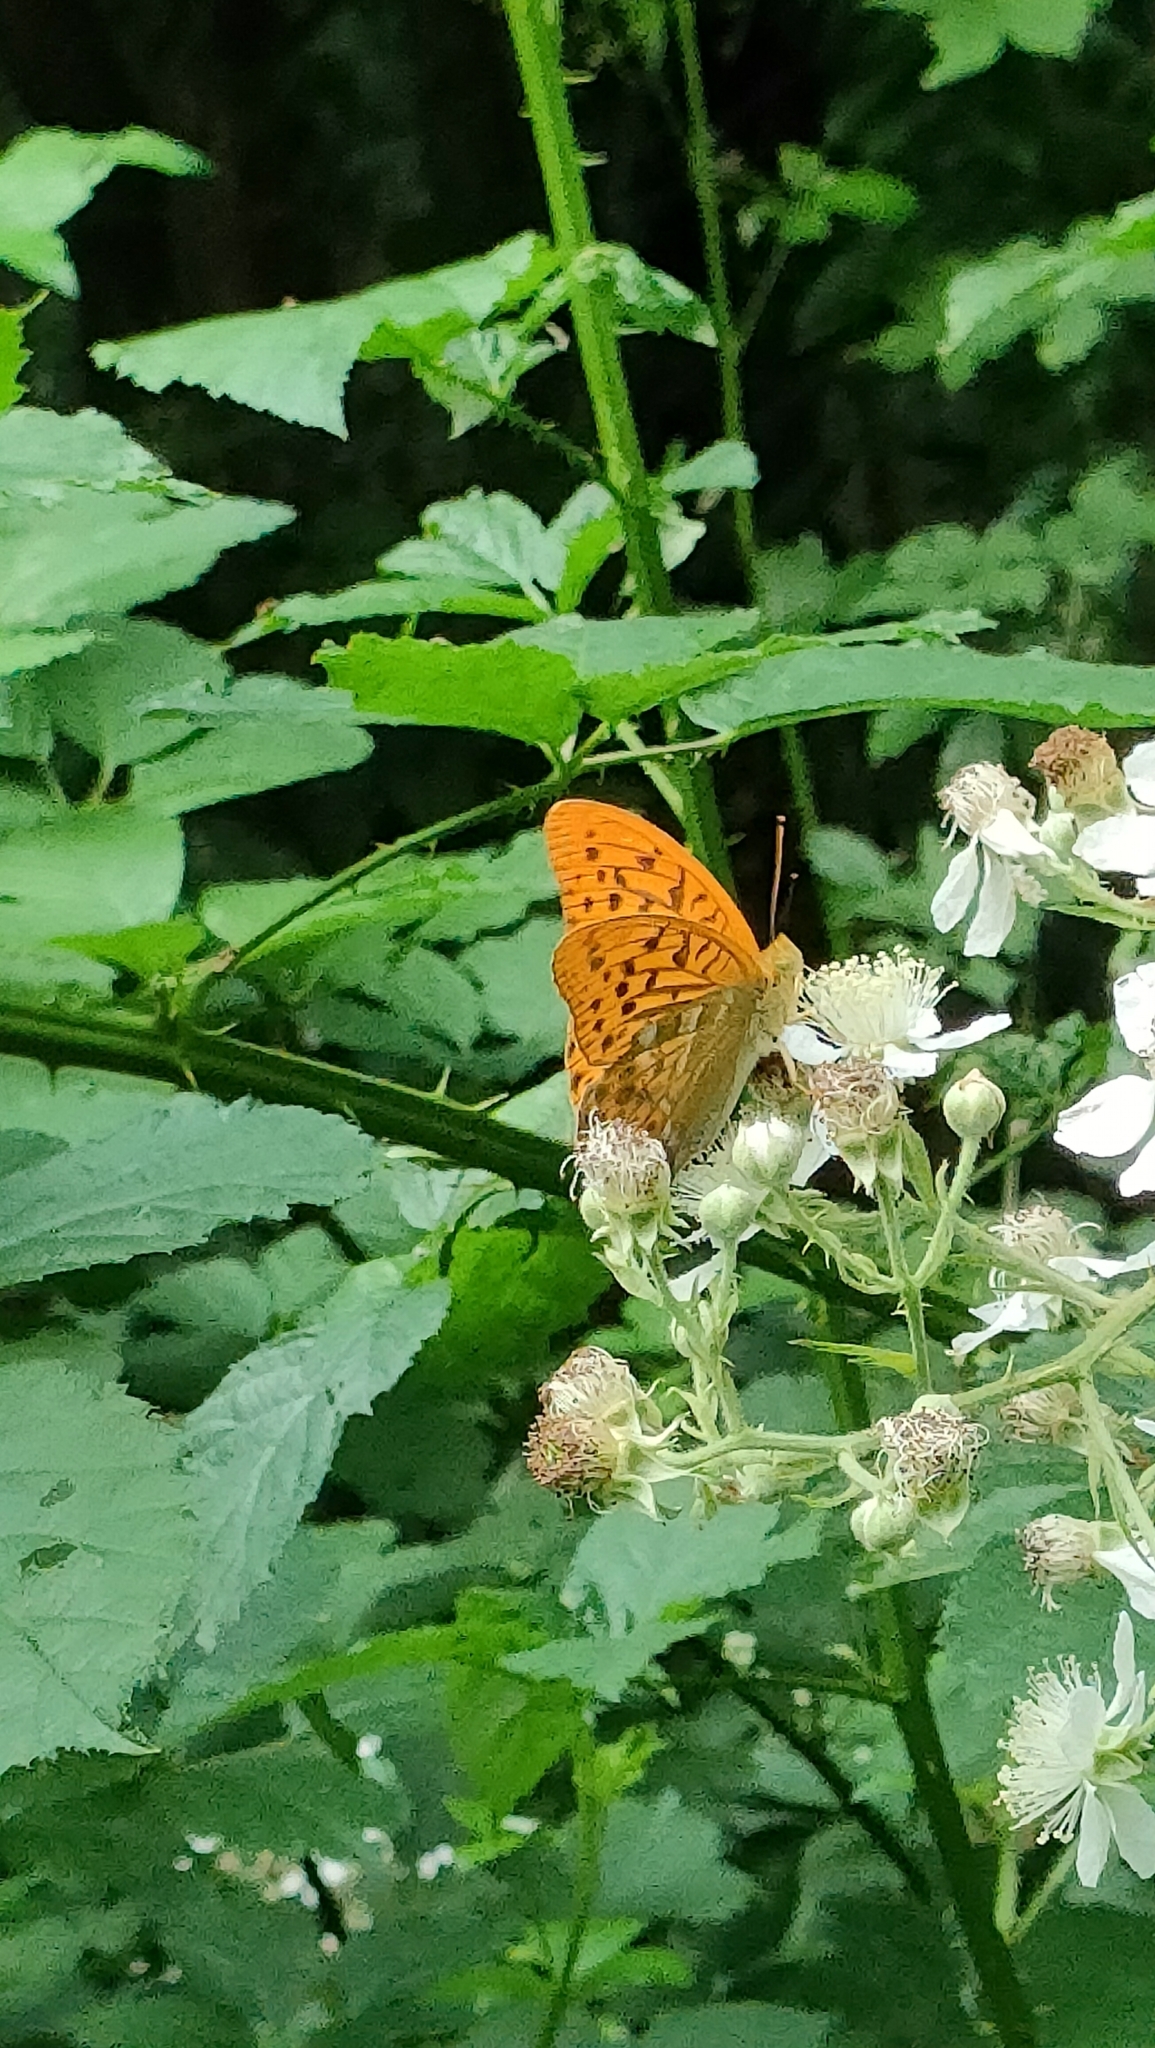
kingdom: Animalia
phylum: Arthropoda
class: Insecta
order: Lepidoptera
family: Nymphalidae
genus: Argynnis
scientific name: Argynnis paphia
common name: Silver-washed fritillary
